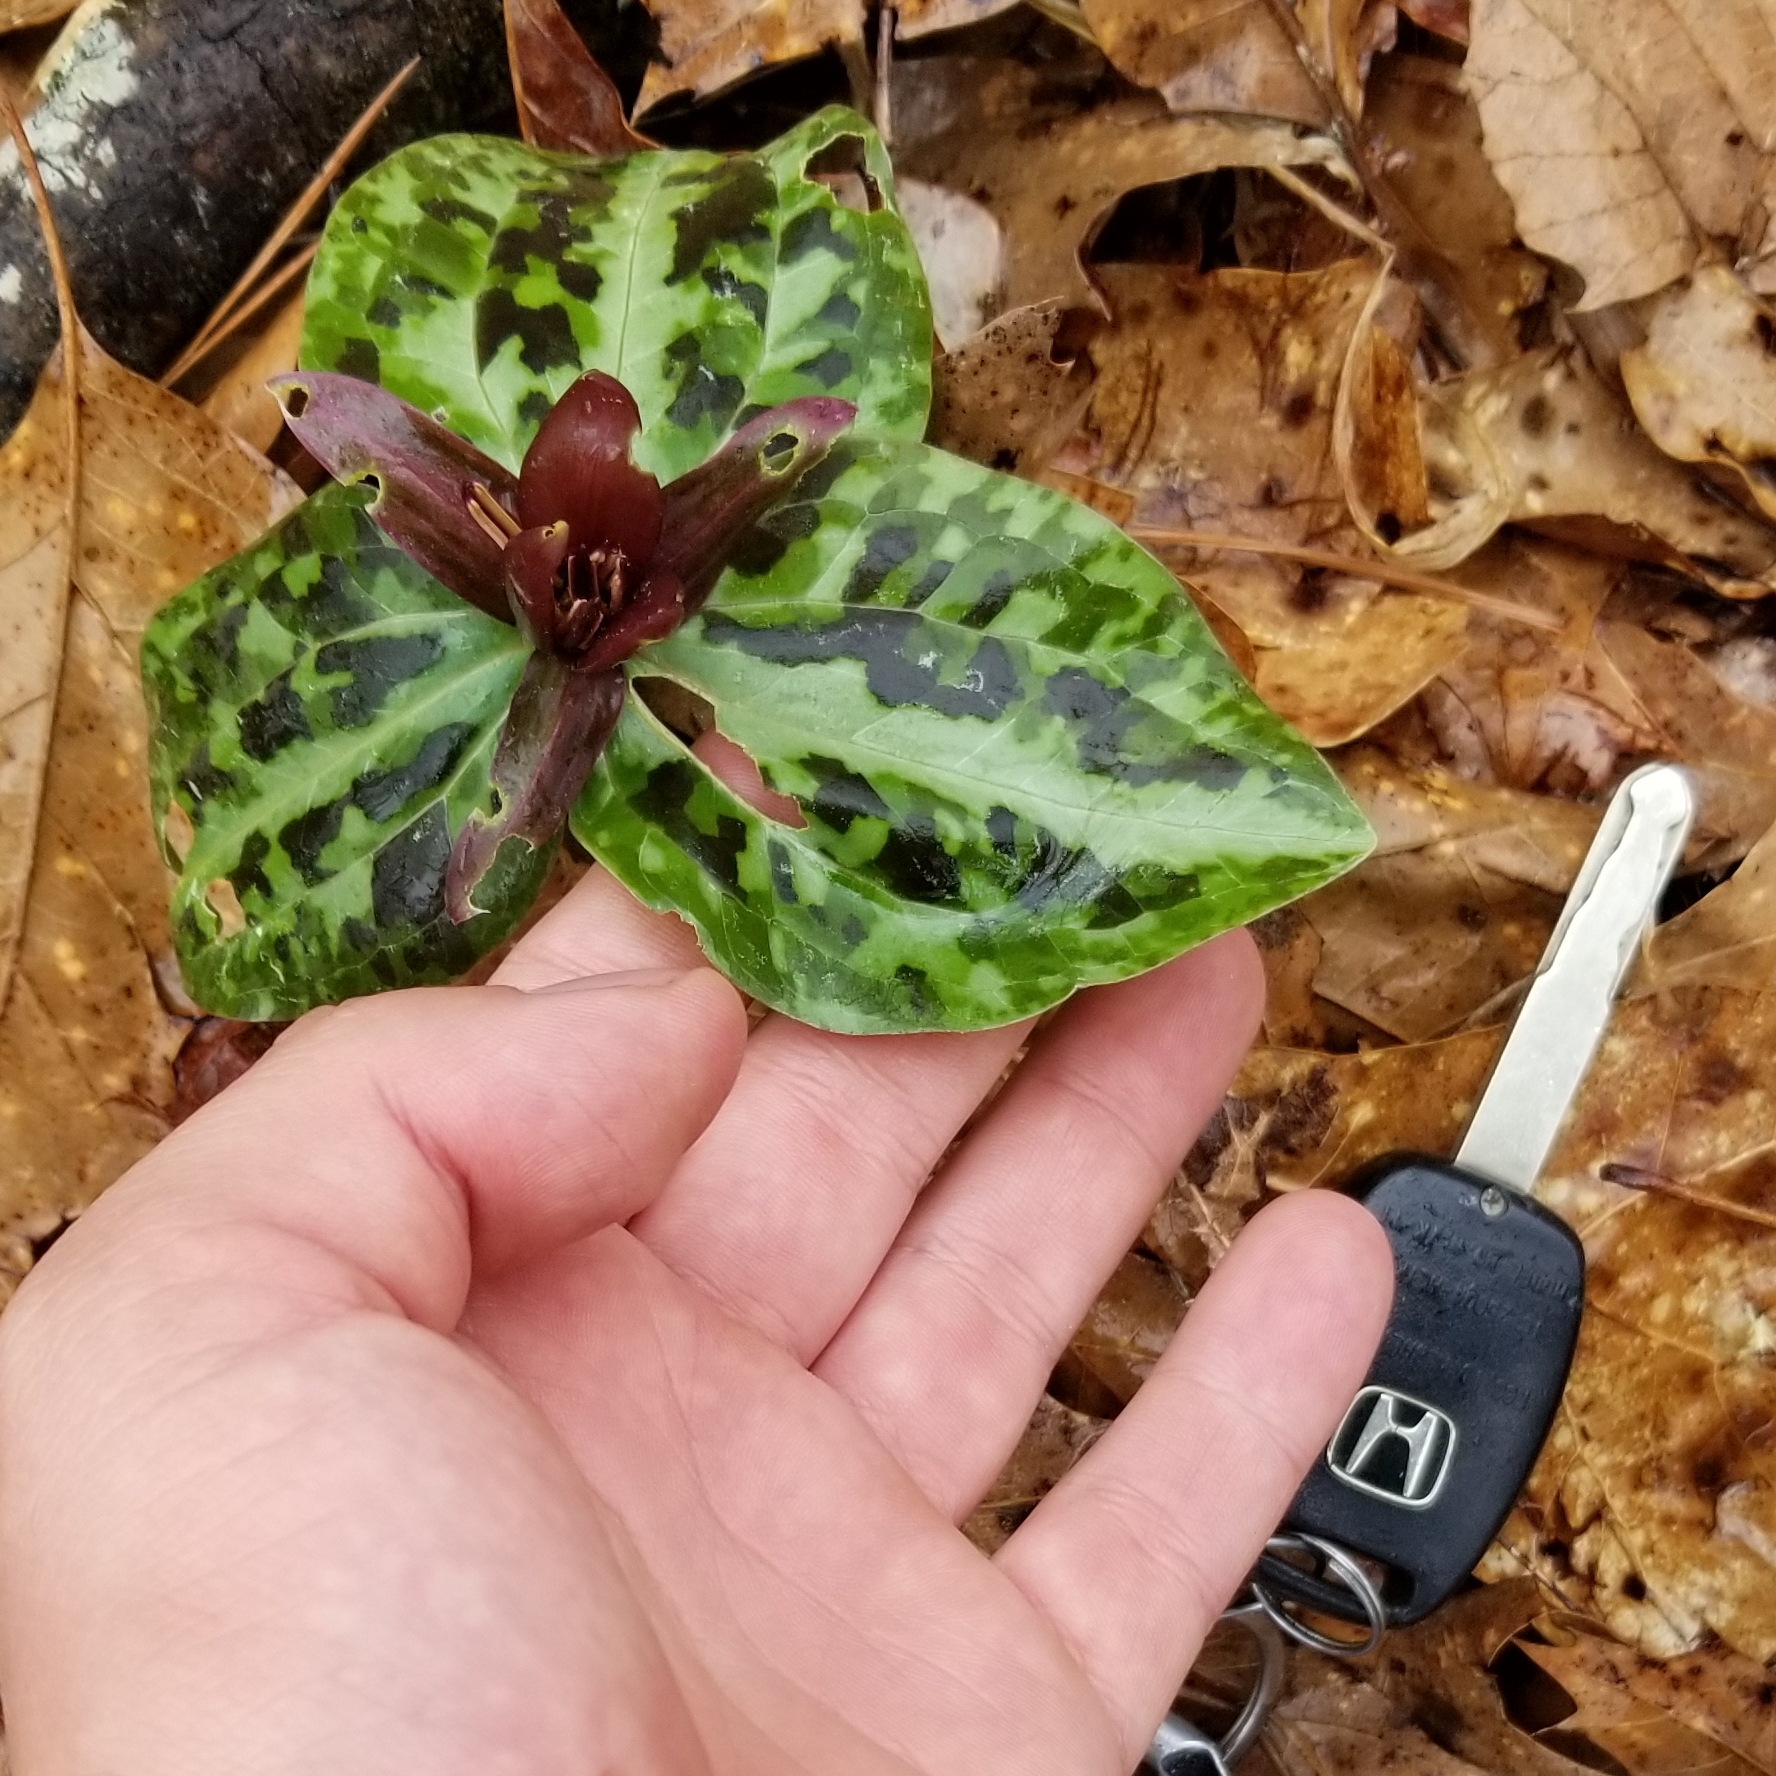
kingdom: Plantae
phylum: Tracheophyta
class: Liliopsida
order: Liliales
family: Melanthiaceae
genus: Trillium
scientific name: Trillium reliquum
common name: Relict trillium
